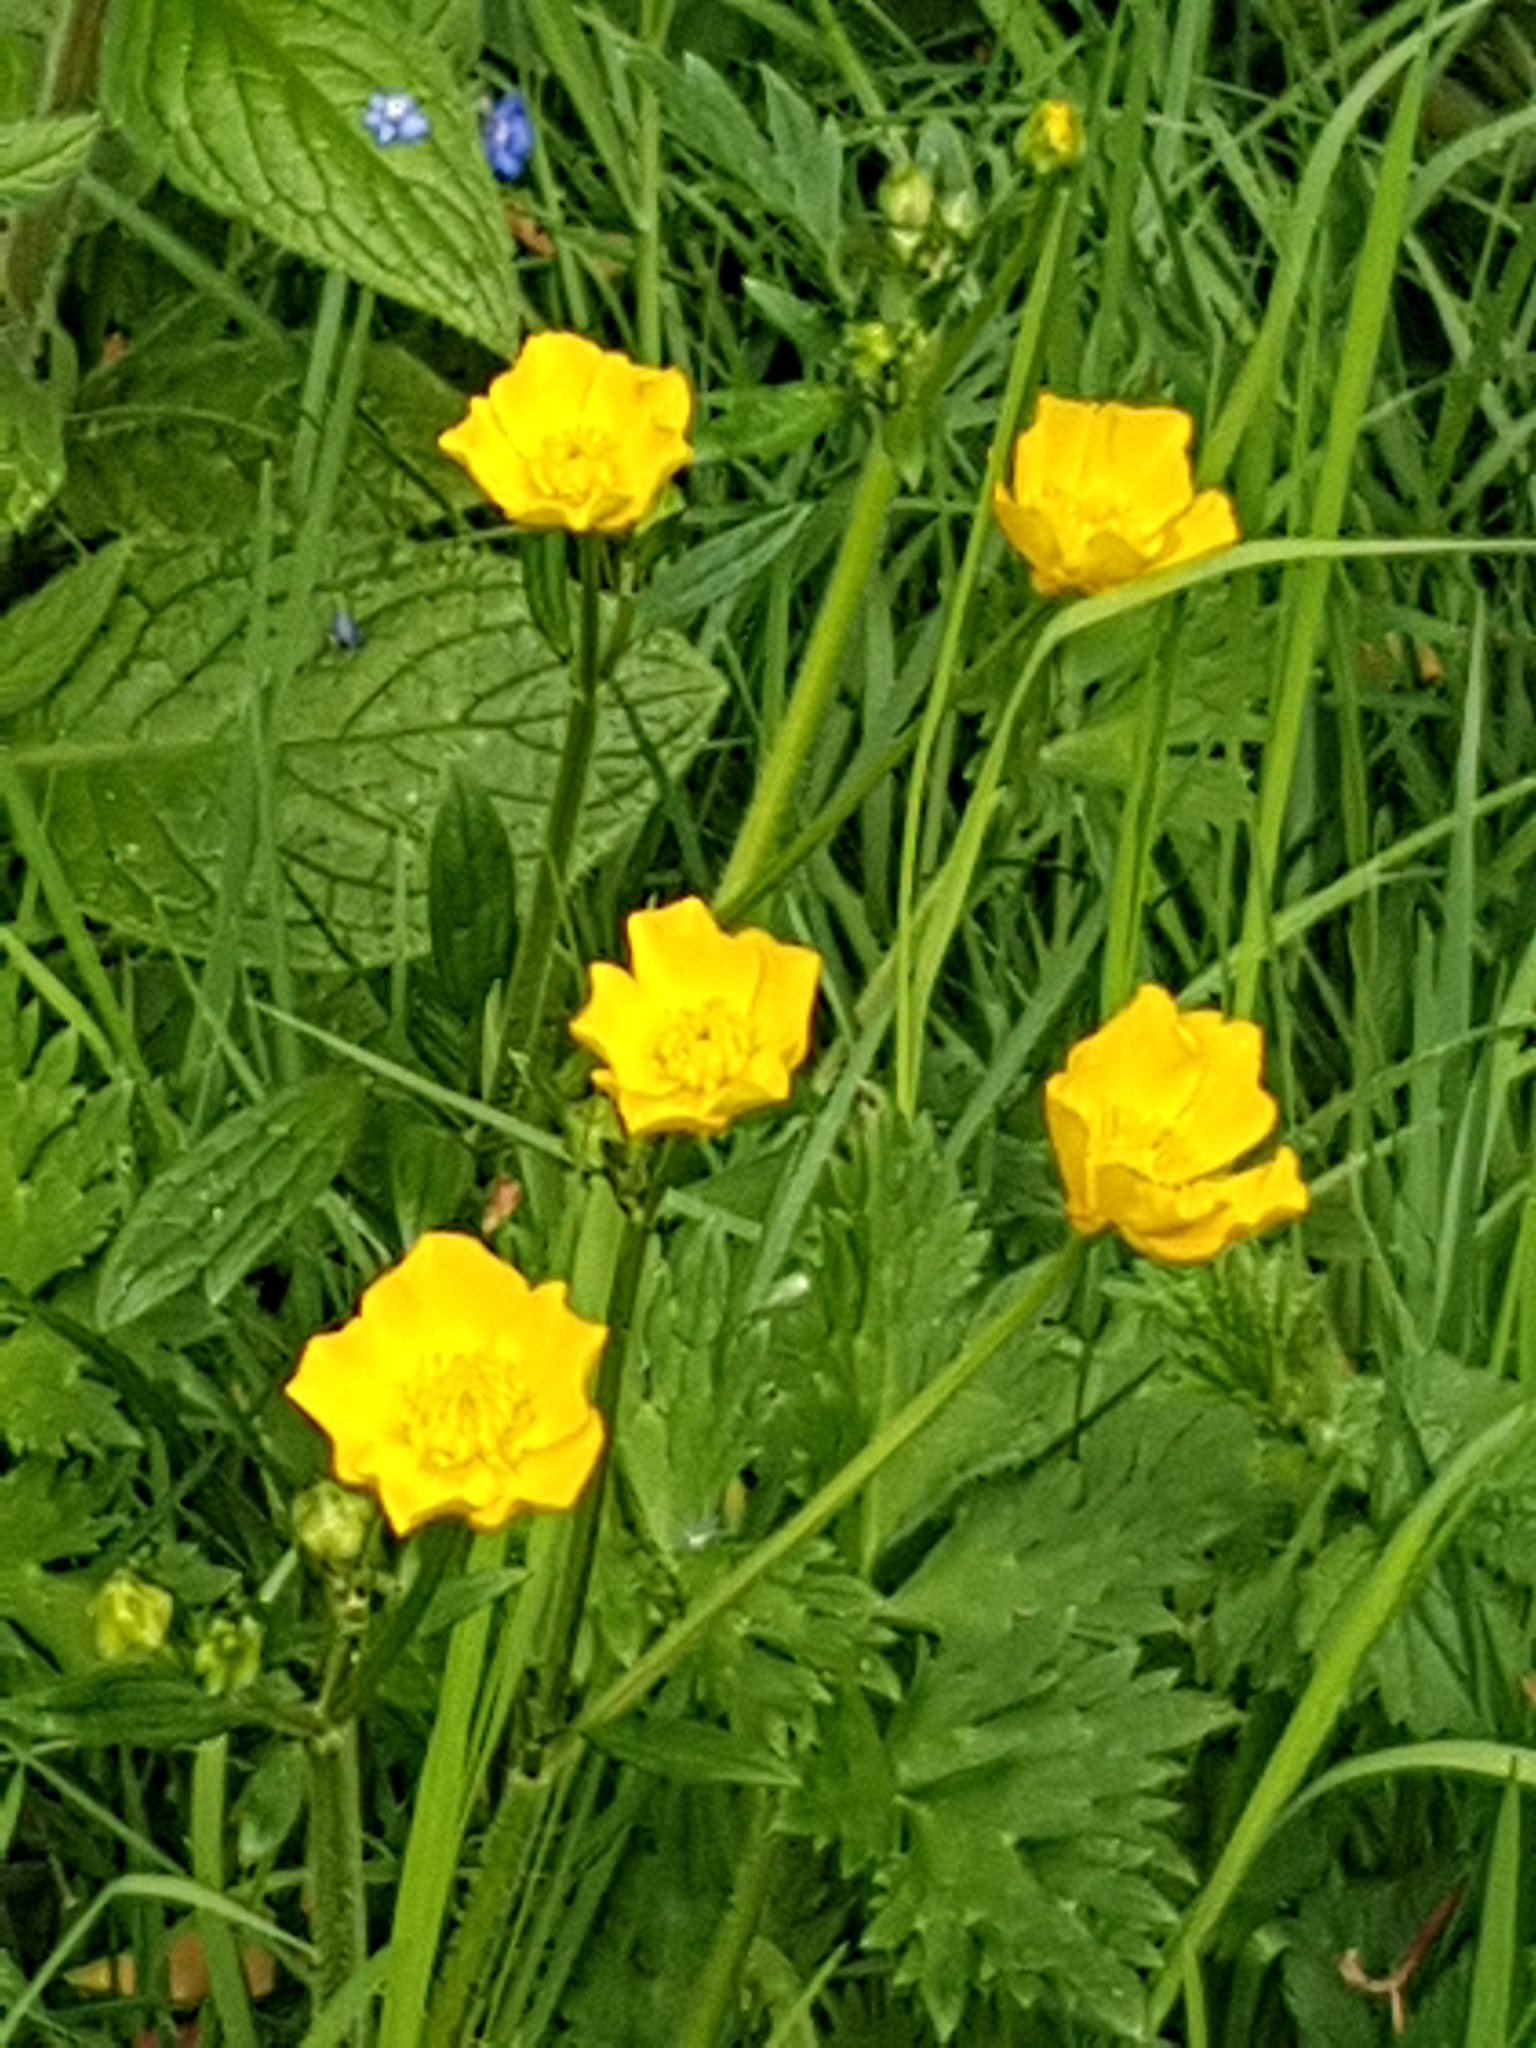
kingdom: Plantae
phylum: Tracheophyta
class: Magnoliopsida
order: Ranunculales
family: Ranunculaceae
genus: Ranunculus
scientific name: Ranunculus acris
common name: Meadow buttercup
